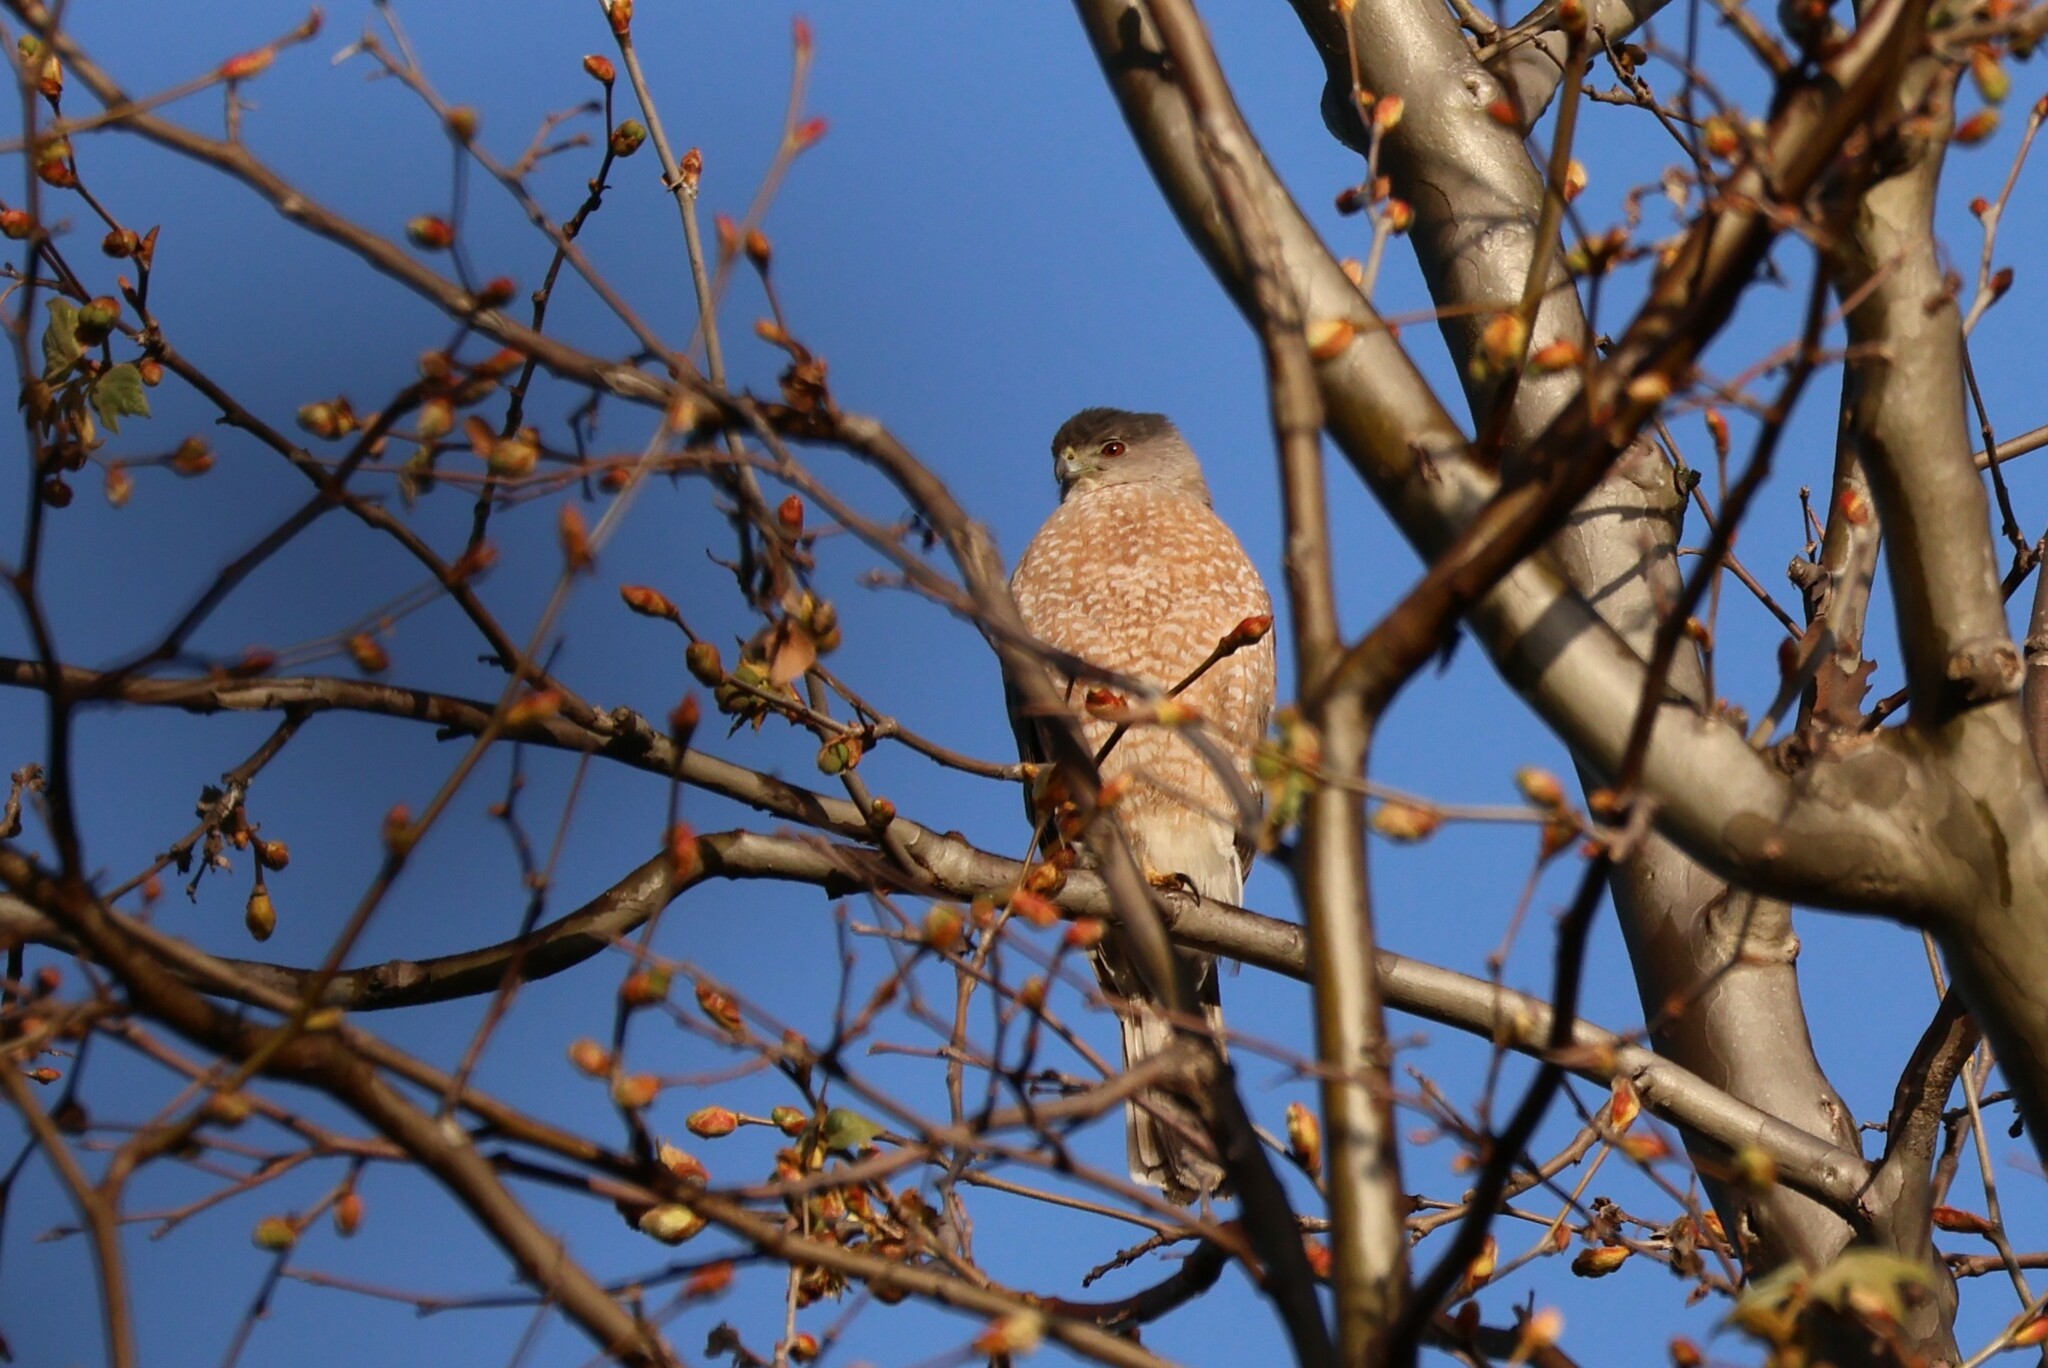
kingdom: Animalia
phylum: Chordata
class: Aves
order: Accipitriformes
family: Accipitridae
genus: Accipiter
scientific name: Accipiter cooperii
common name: Cooper's hawk
